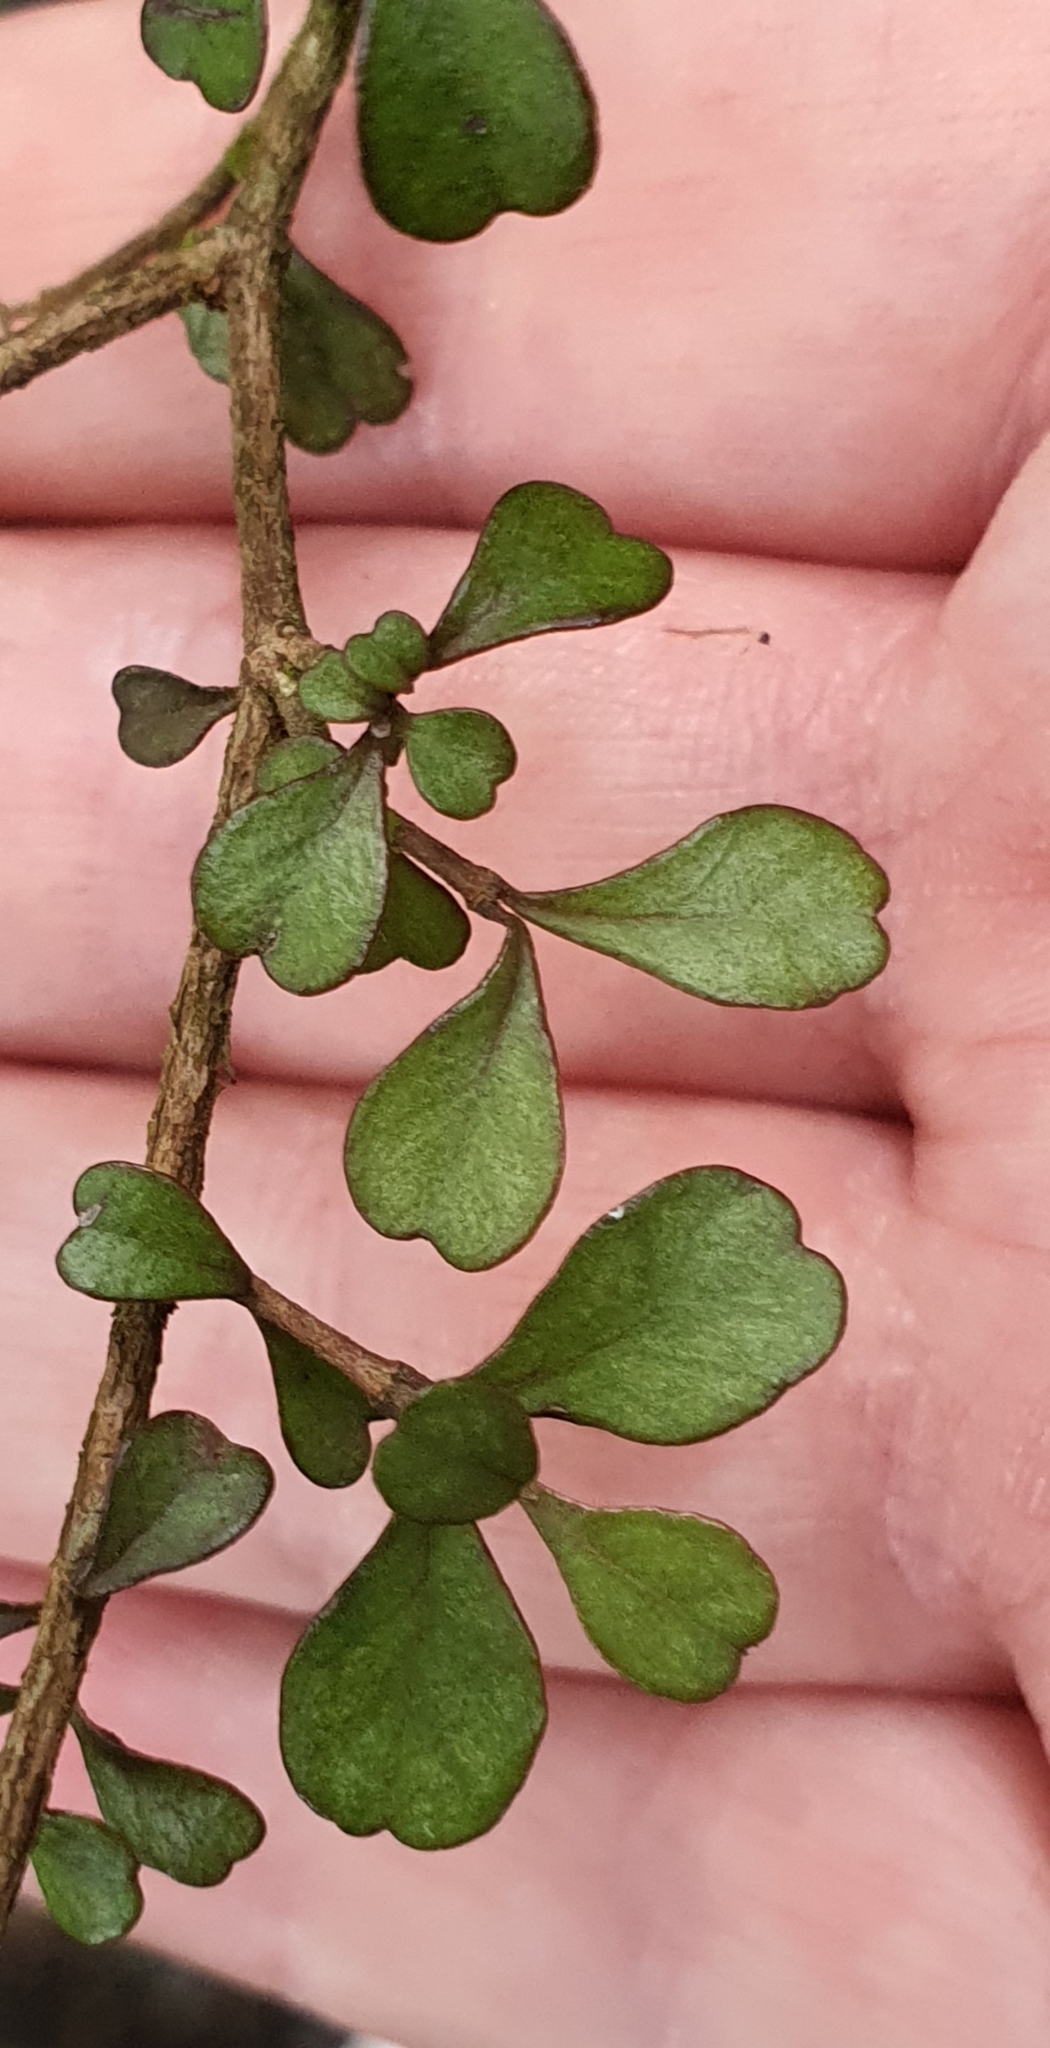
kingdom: Plantae
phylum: Tracheophyta
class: Magnoliopsida
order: Myrtales
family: Myrtaceae
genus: Lophomyrtus
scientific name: Lophomyrtus obcordata
